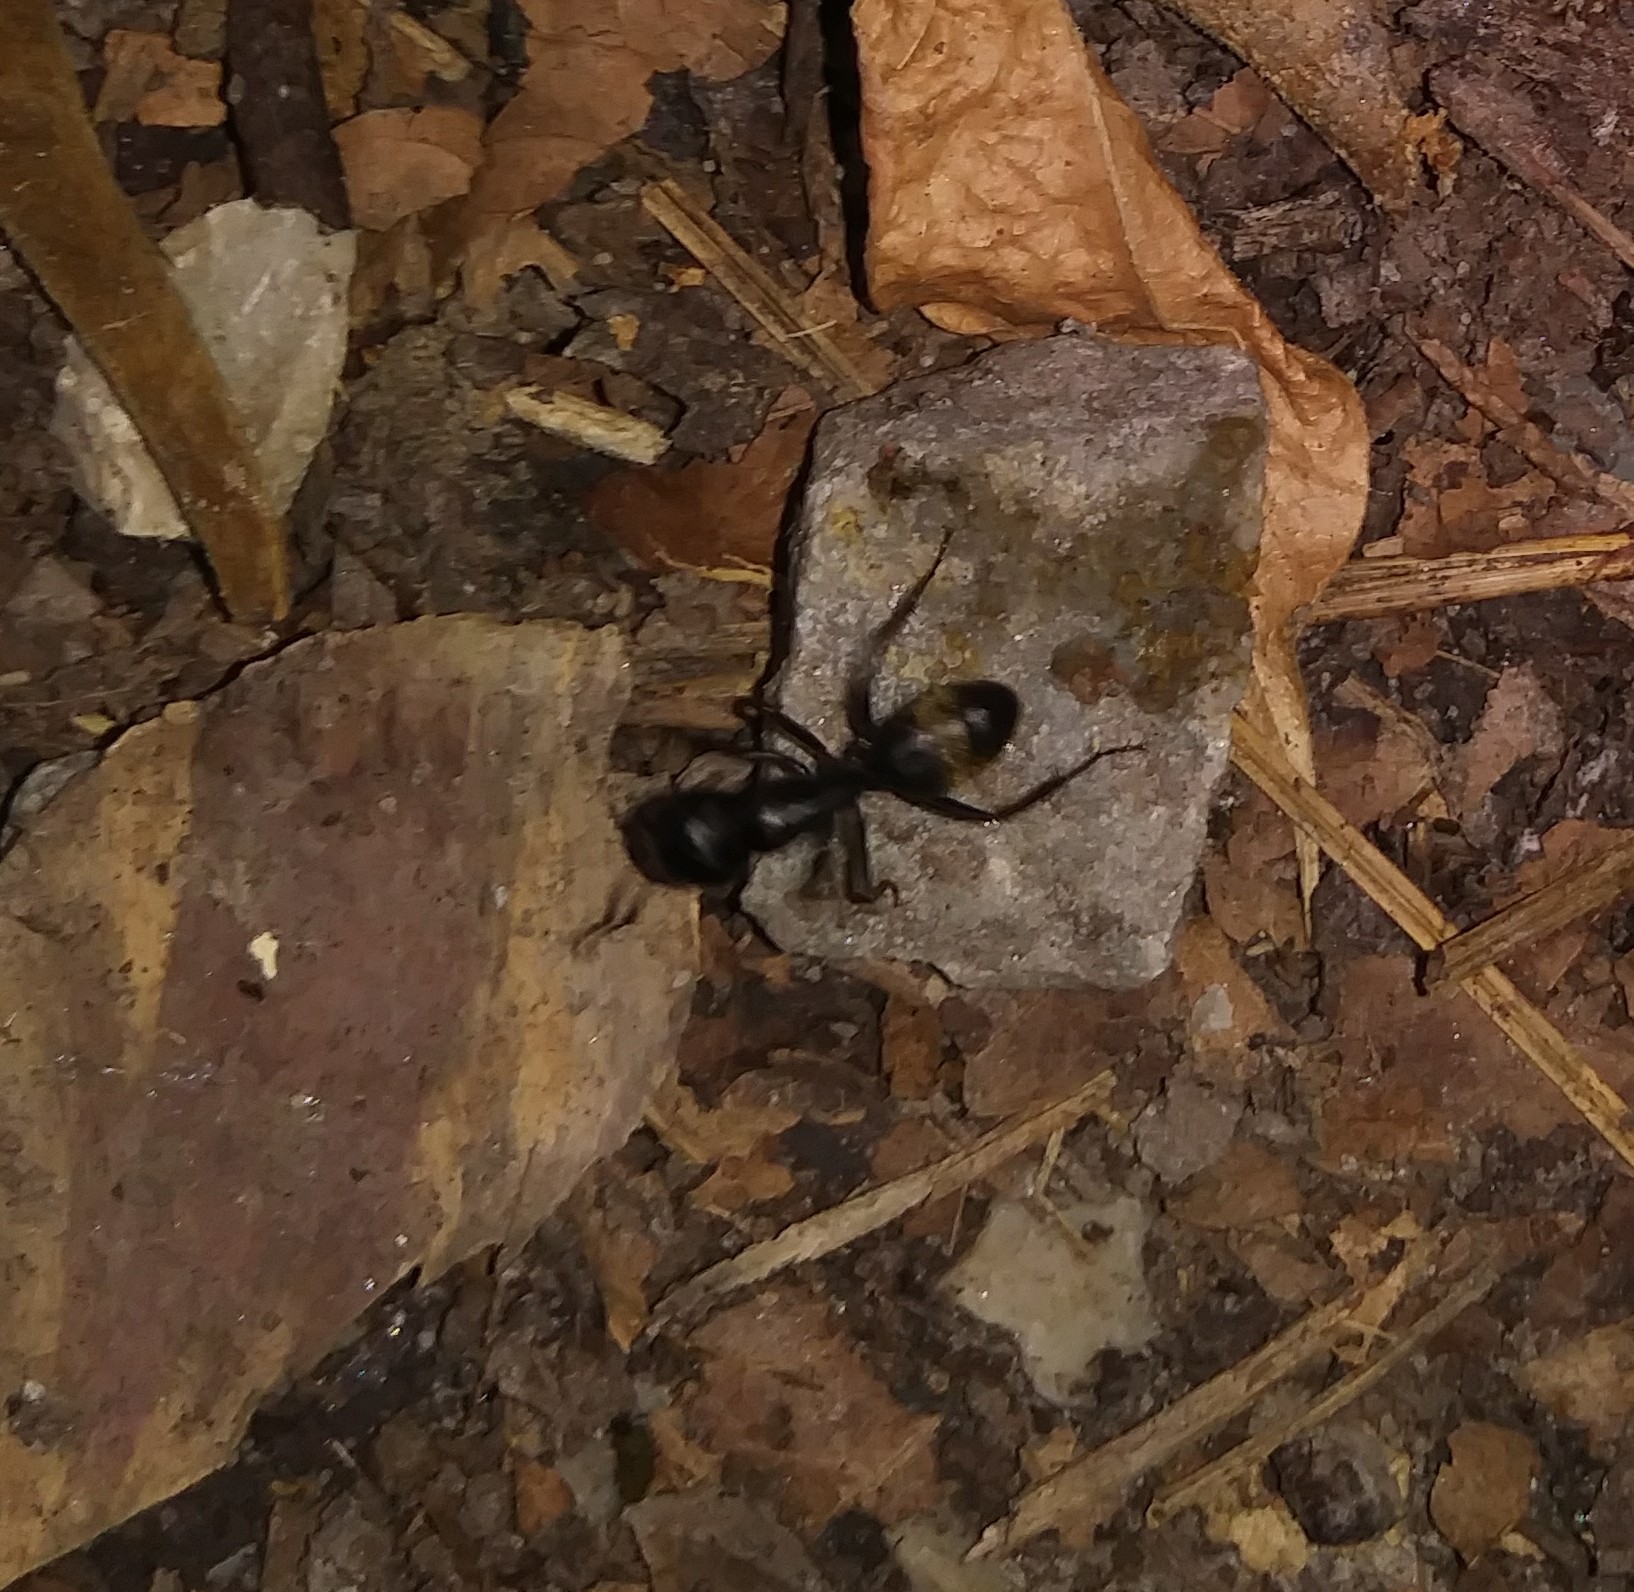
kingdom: Animalia
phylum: Arthropoda
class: Insecta
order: Hymenoptera
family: Formicidae
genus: Camponotus
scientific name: Camponotus pennsylvanicus
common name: Black carpenter ant
